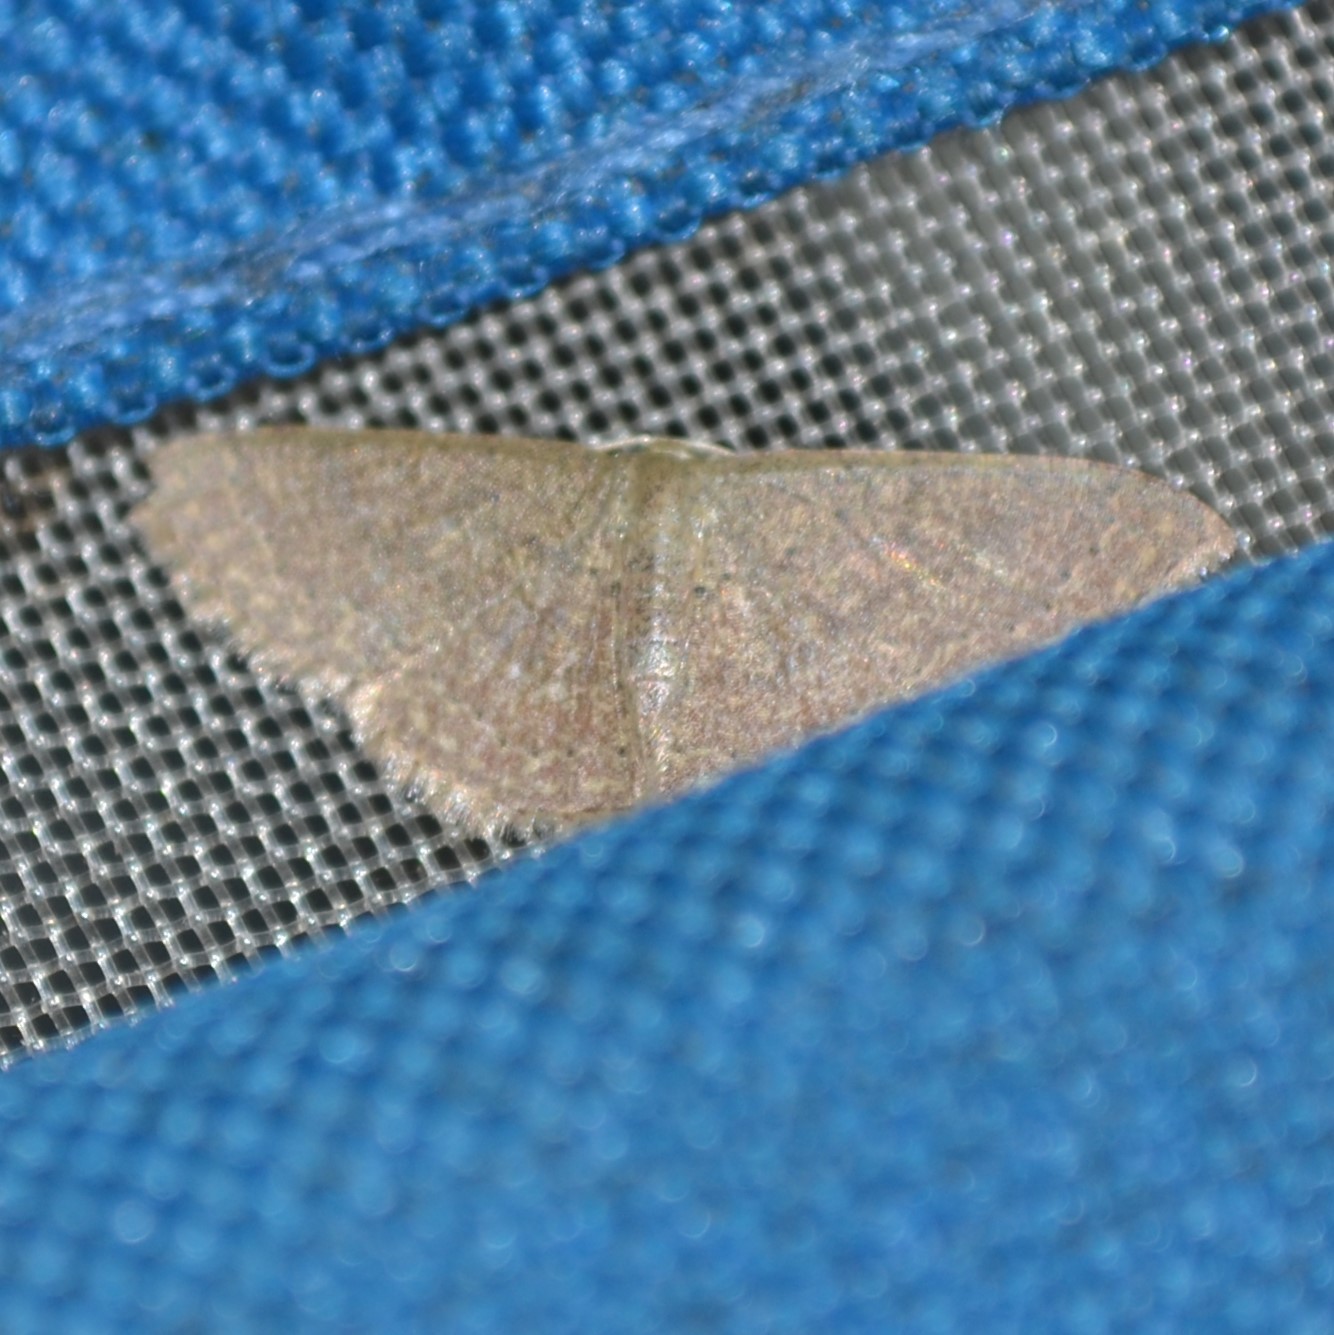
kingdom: Animalia
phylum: Arthropoda
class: Insecta
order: Lepidoptera
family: Geometridae
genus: Pleuroprucha
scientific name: Pleuroprucha insulsaria
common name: Common tan wave
